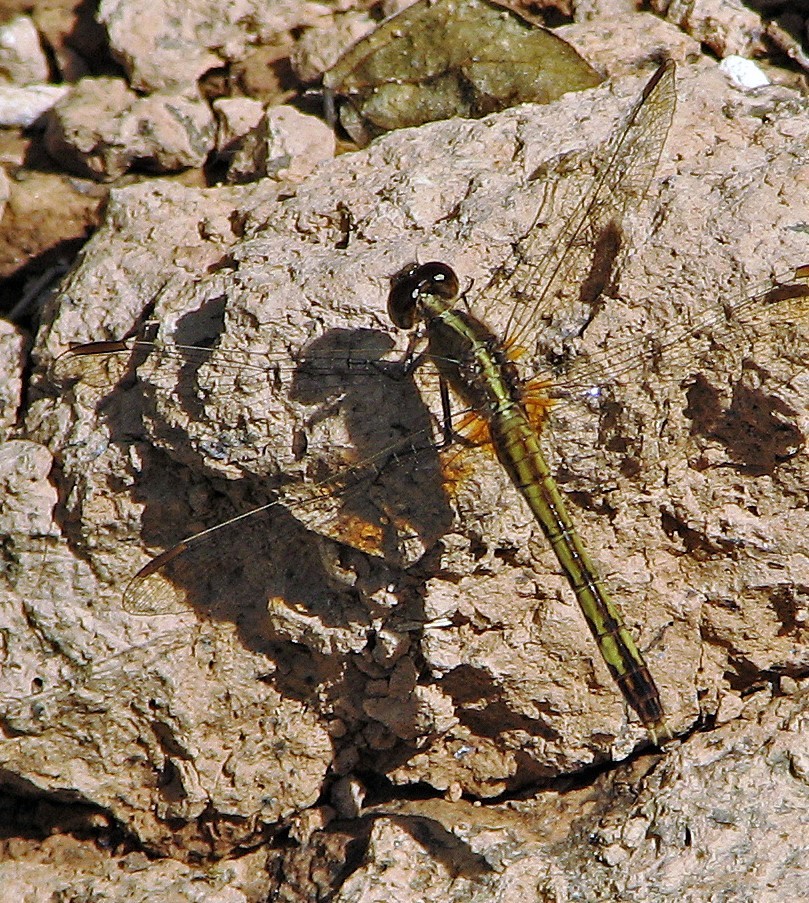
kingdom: Animalia
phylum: Arthropoda
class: Insecta
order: Odonata
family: Libellulidae
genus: Erythrodiplax
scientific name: Erythrodiplax corallina
